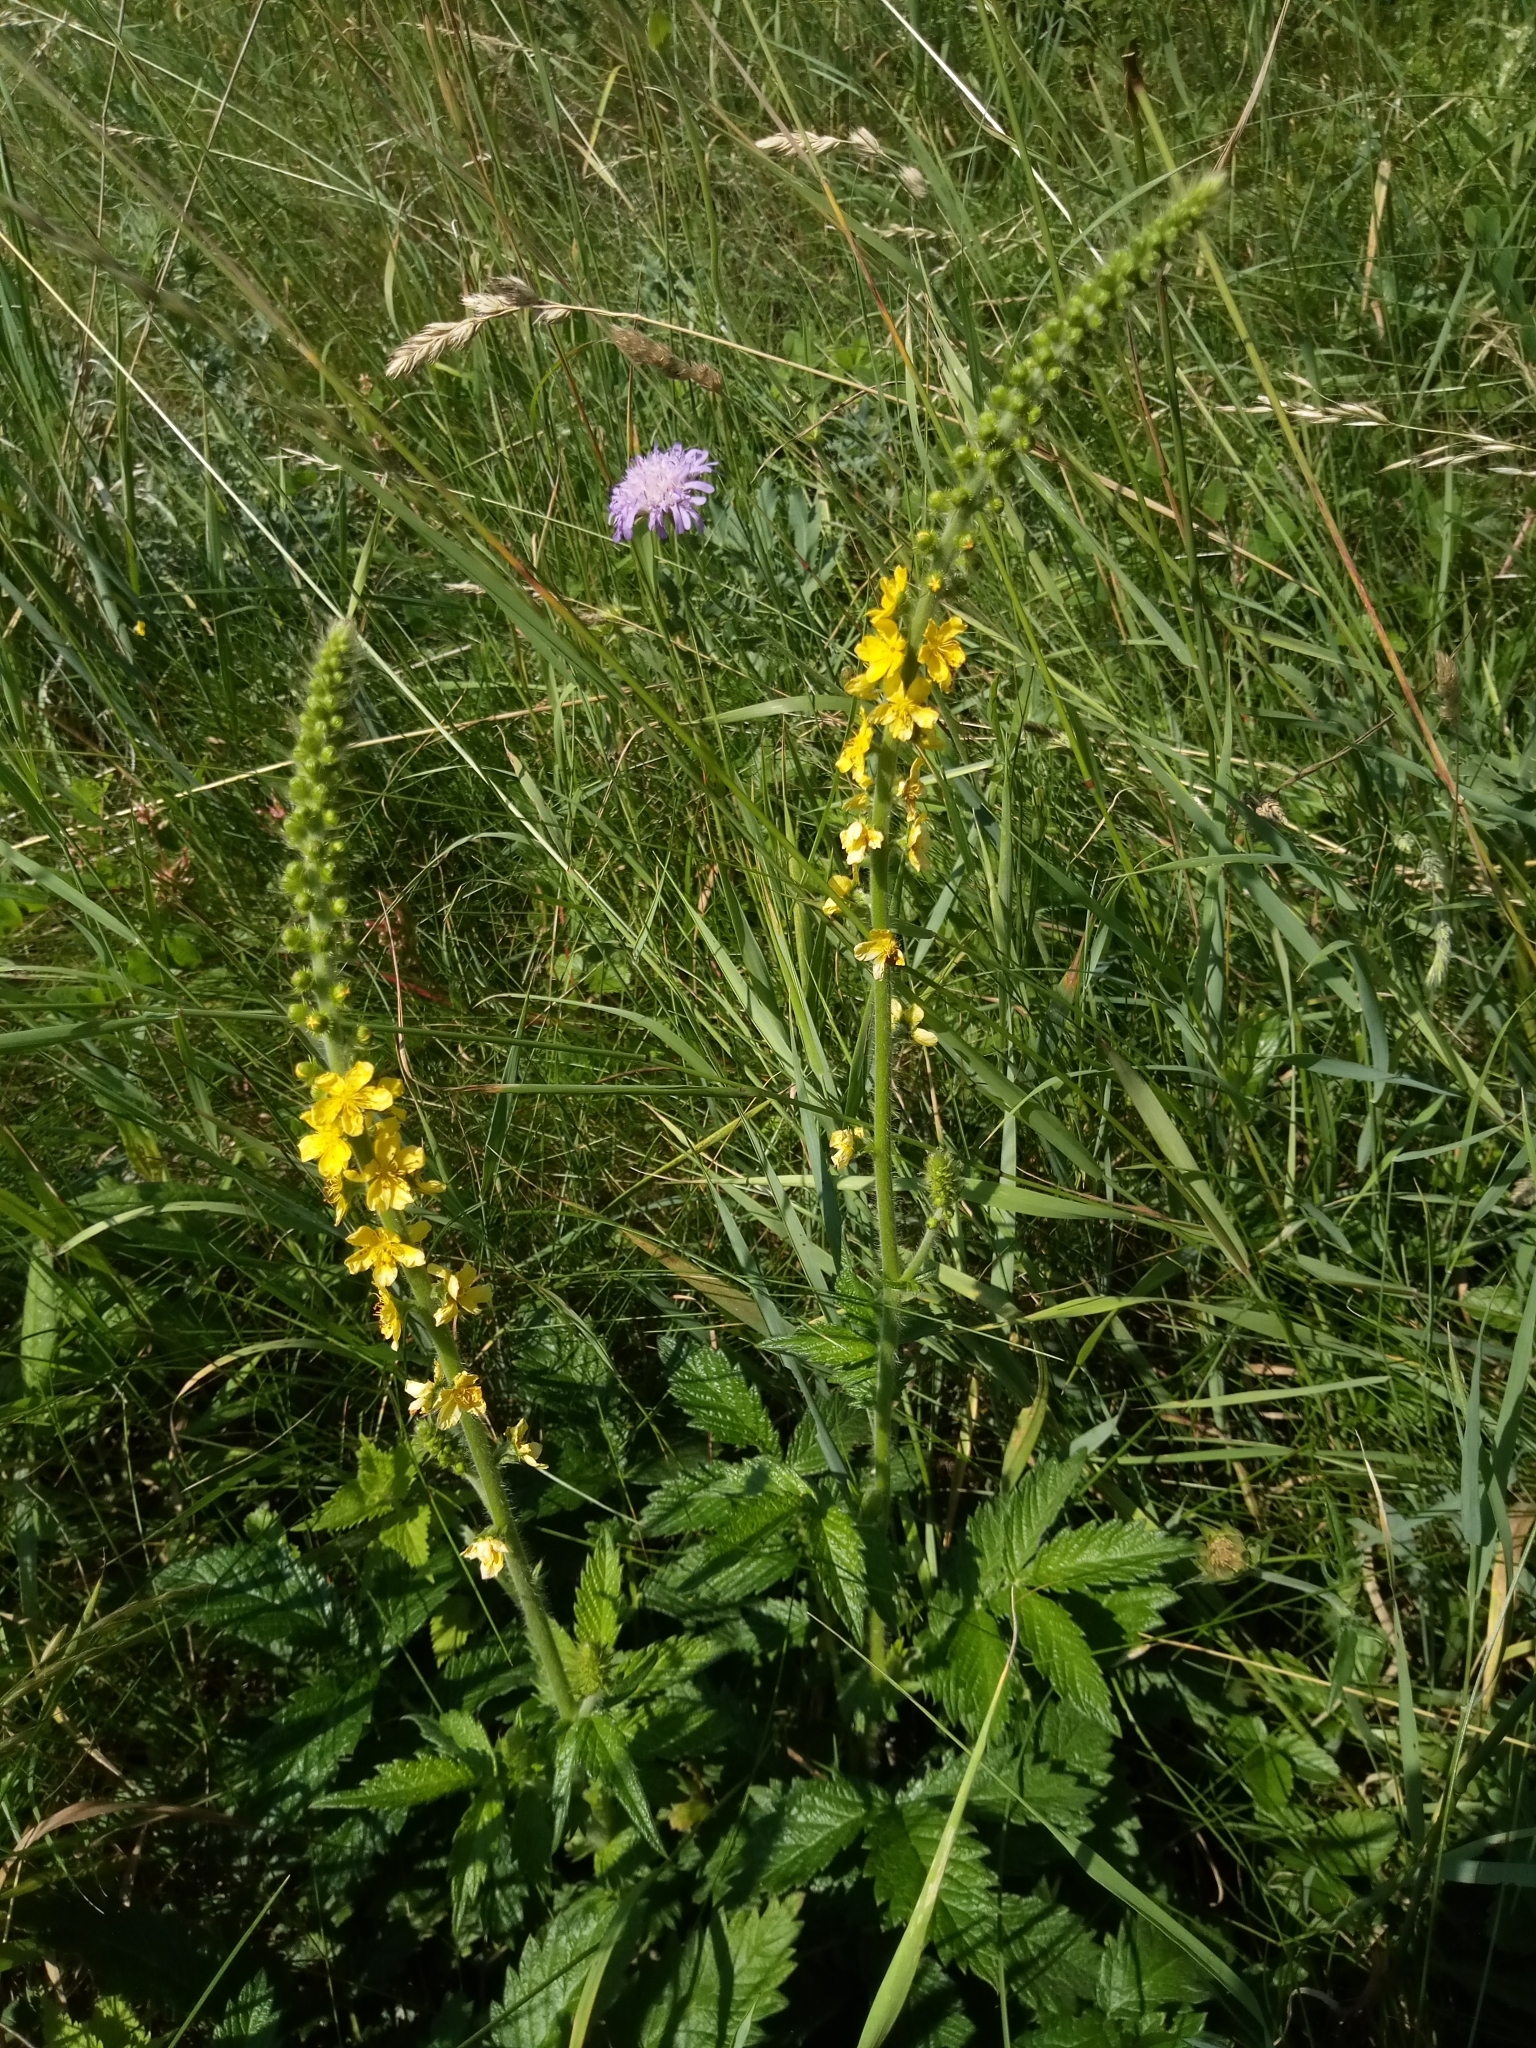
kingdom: Plantae
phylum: Tracheophyta
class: Magnoliopsida
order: Rosales
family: Rosaceae
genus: Agrimonia
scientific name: Agrimonia eupatoria
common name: Agrimony
